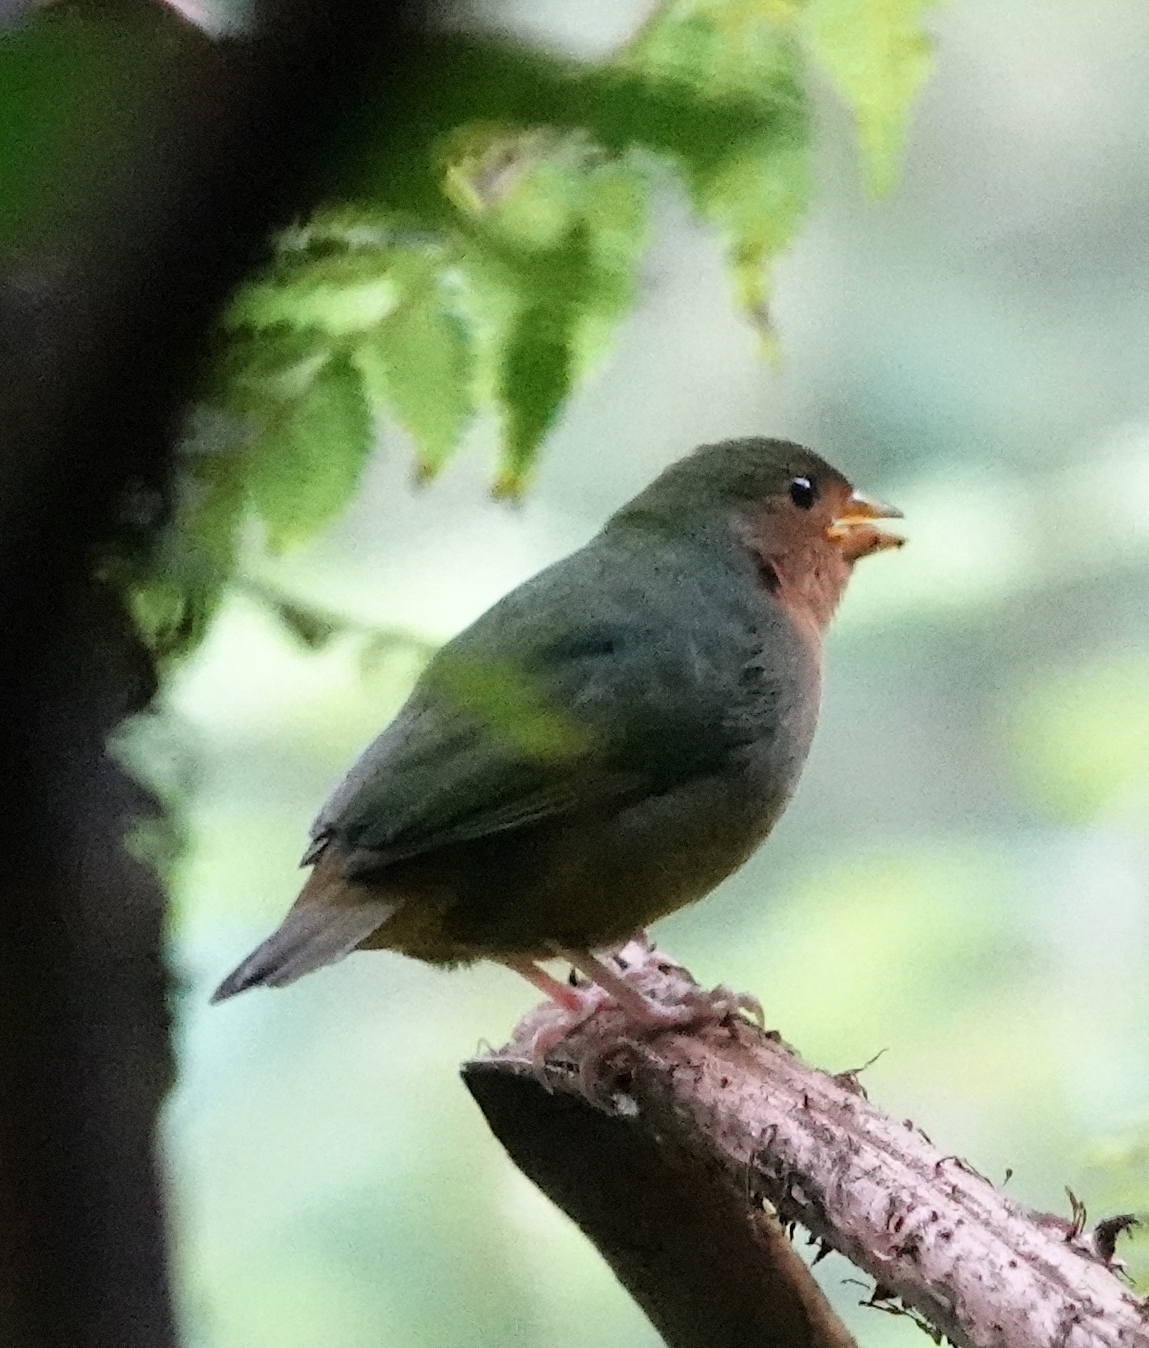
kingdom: Animalia
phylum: Chordata
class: Aves
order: Passeriformes
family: Estrildidae
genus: Erythrura
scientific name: Erythrura hyperythra
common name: Tawny-breasted parrotfinch
